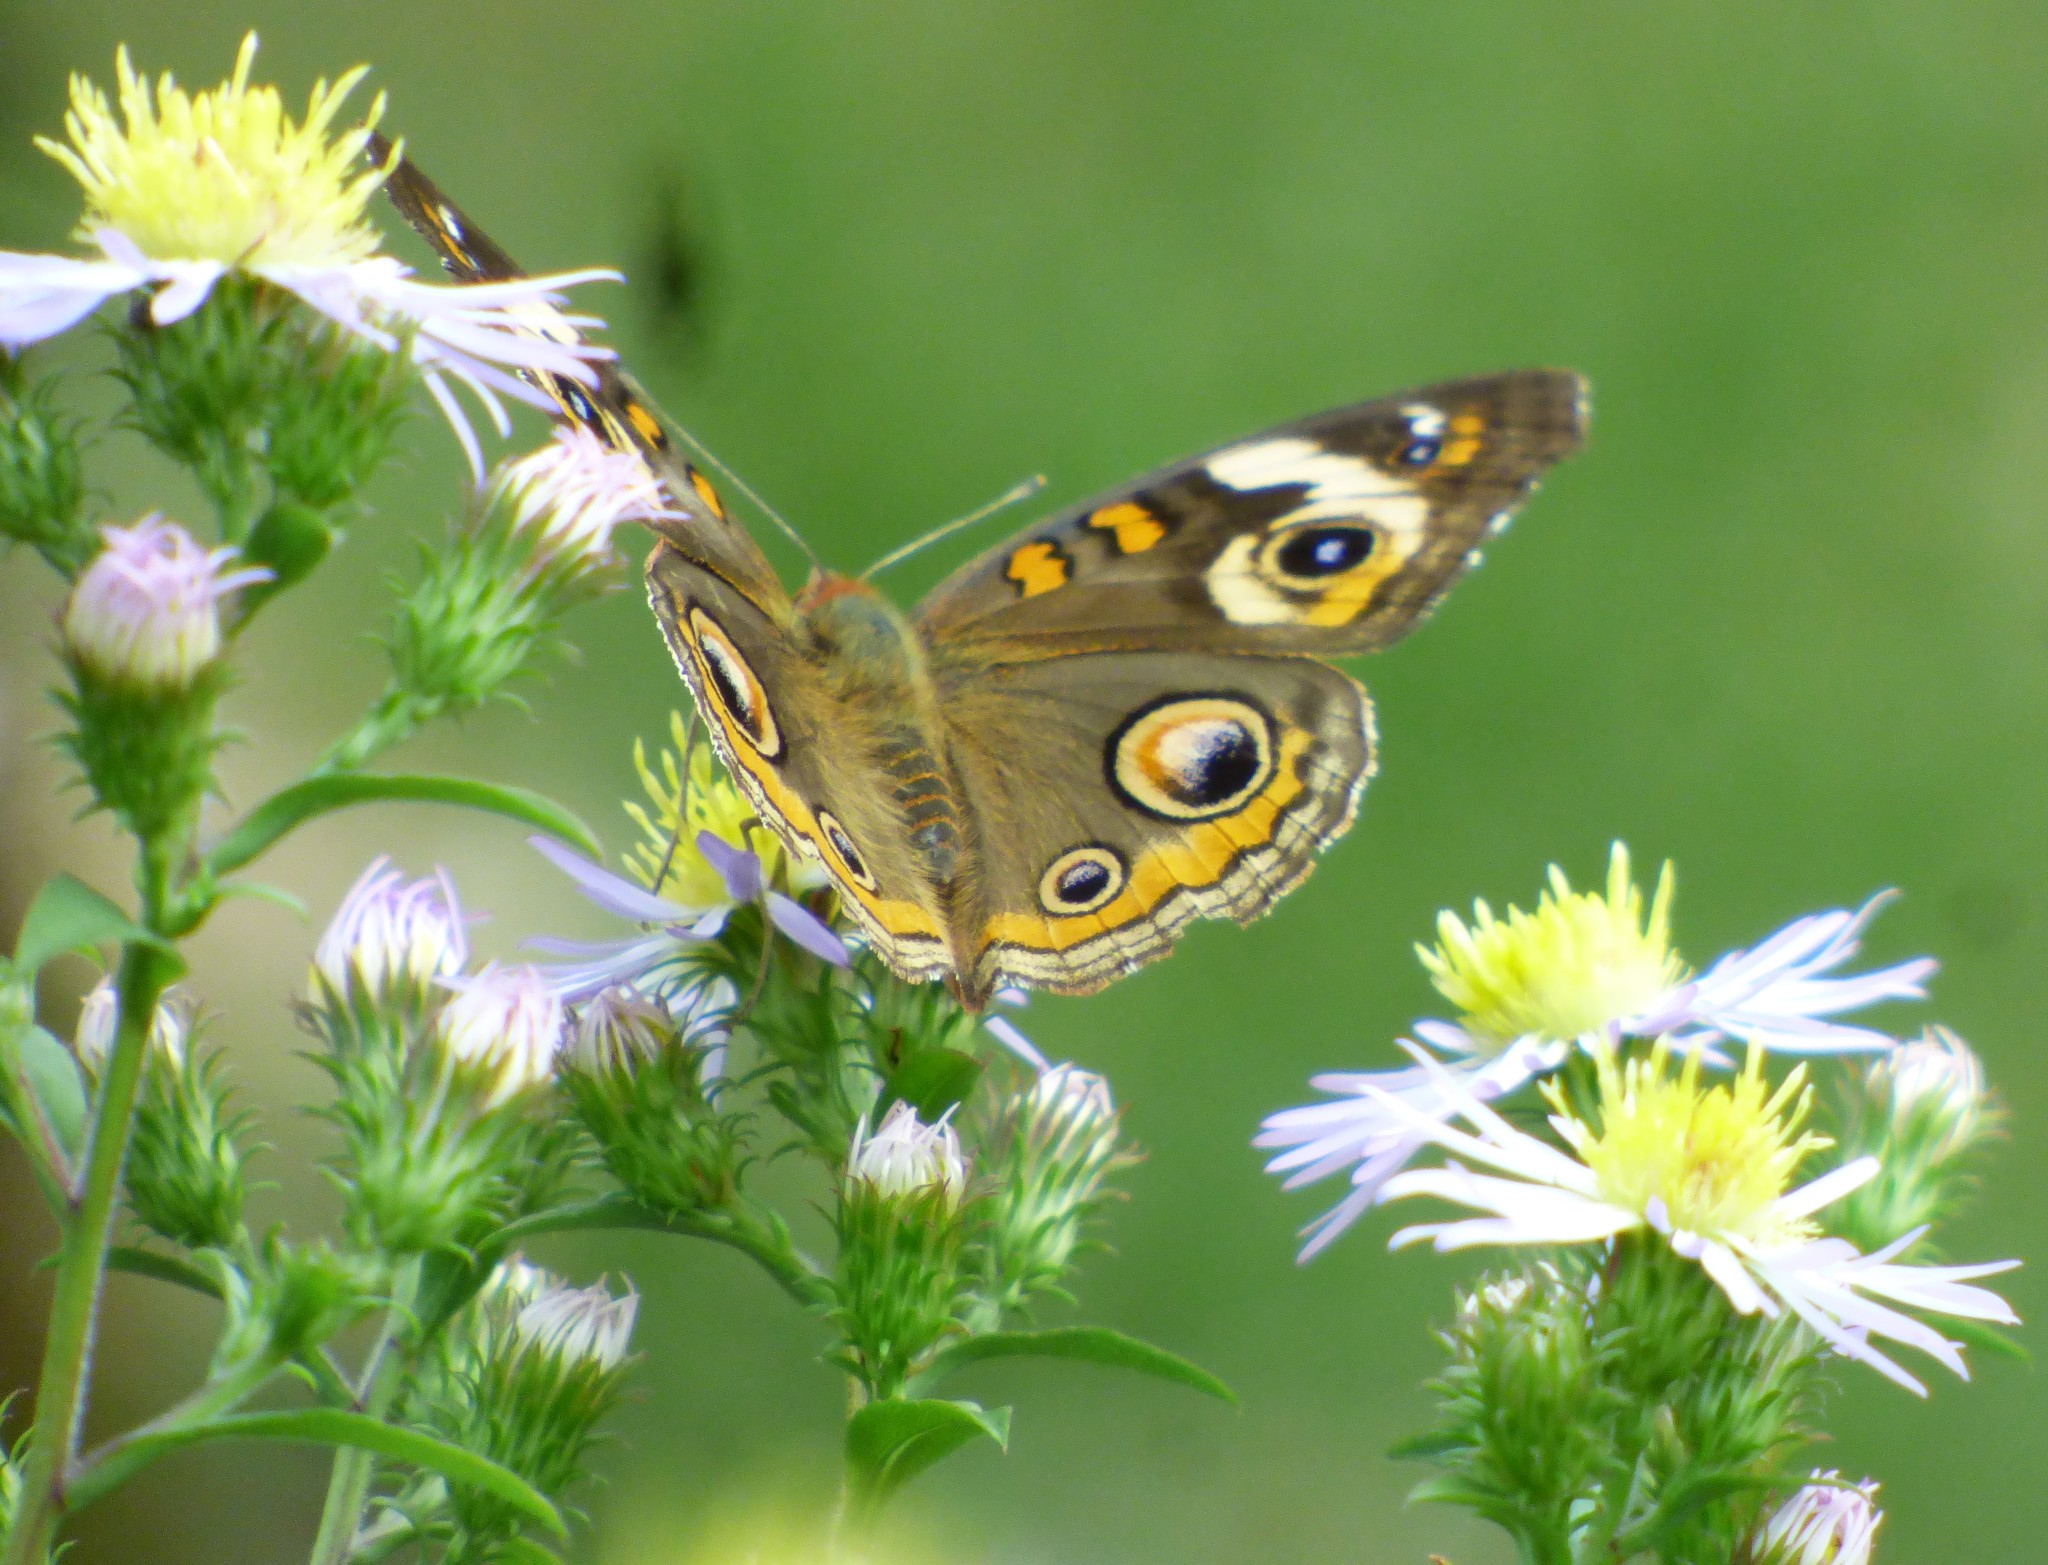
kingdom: Animalia
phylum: Arthropoda
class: Insecta
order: Lepidoptera
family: Nymphalidae
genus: Junonia
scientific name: Junonia coenia
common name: Common buckeye
